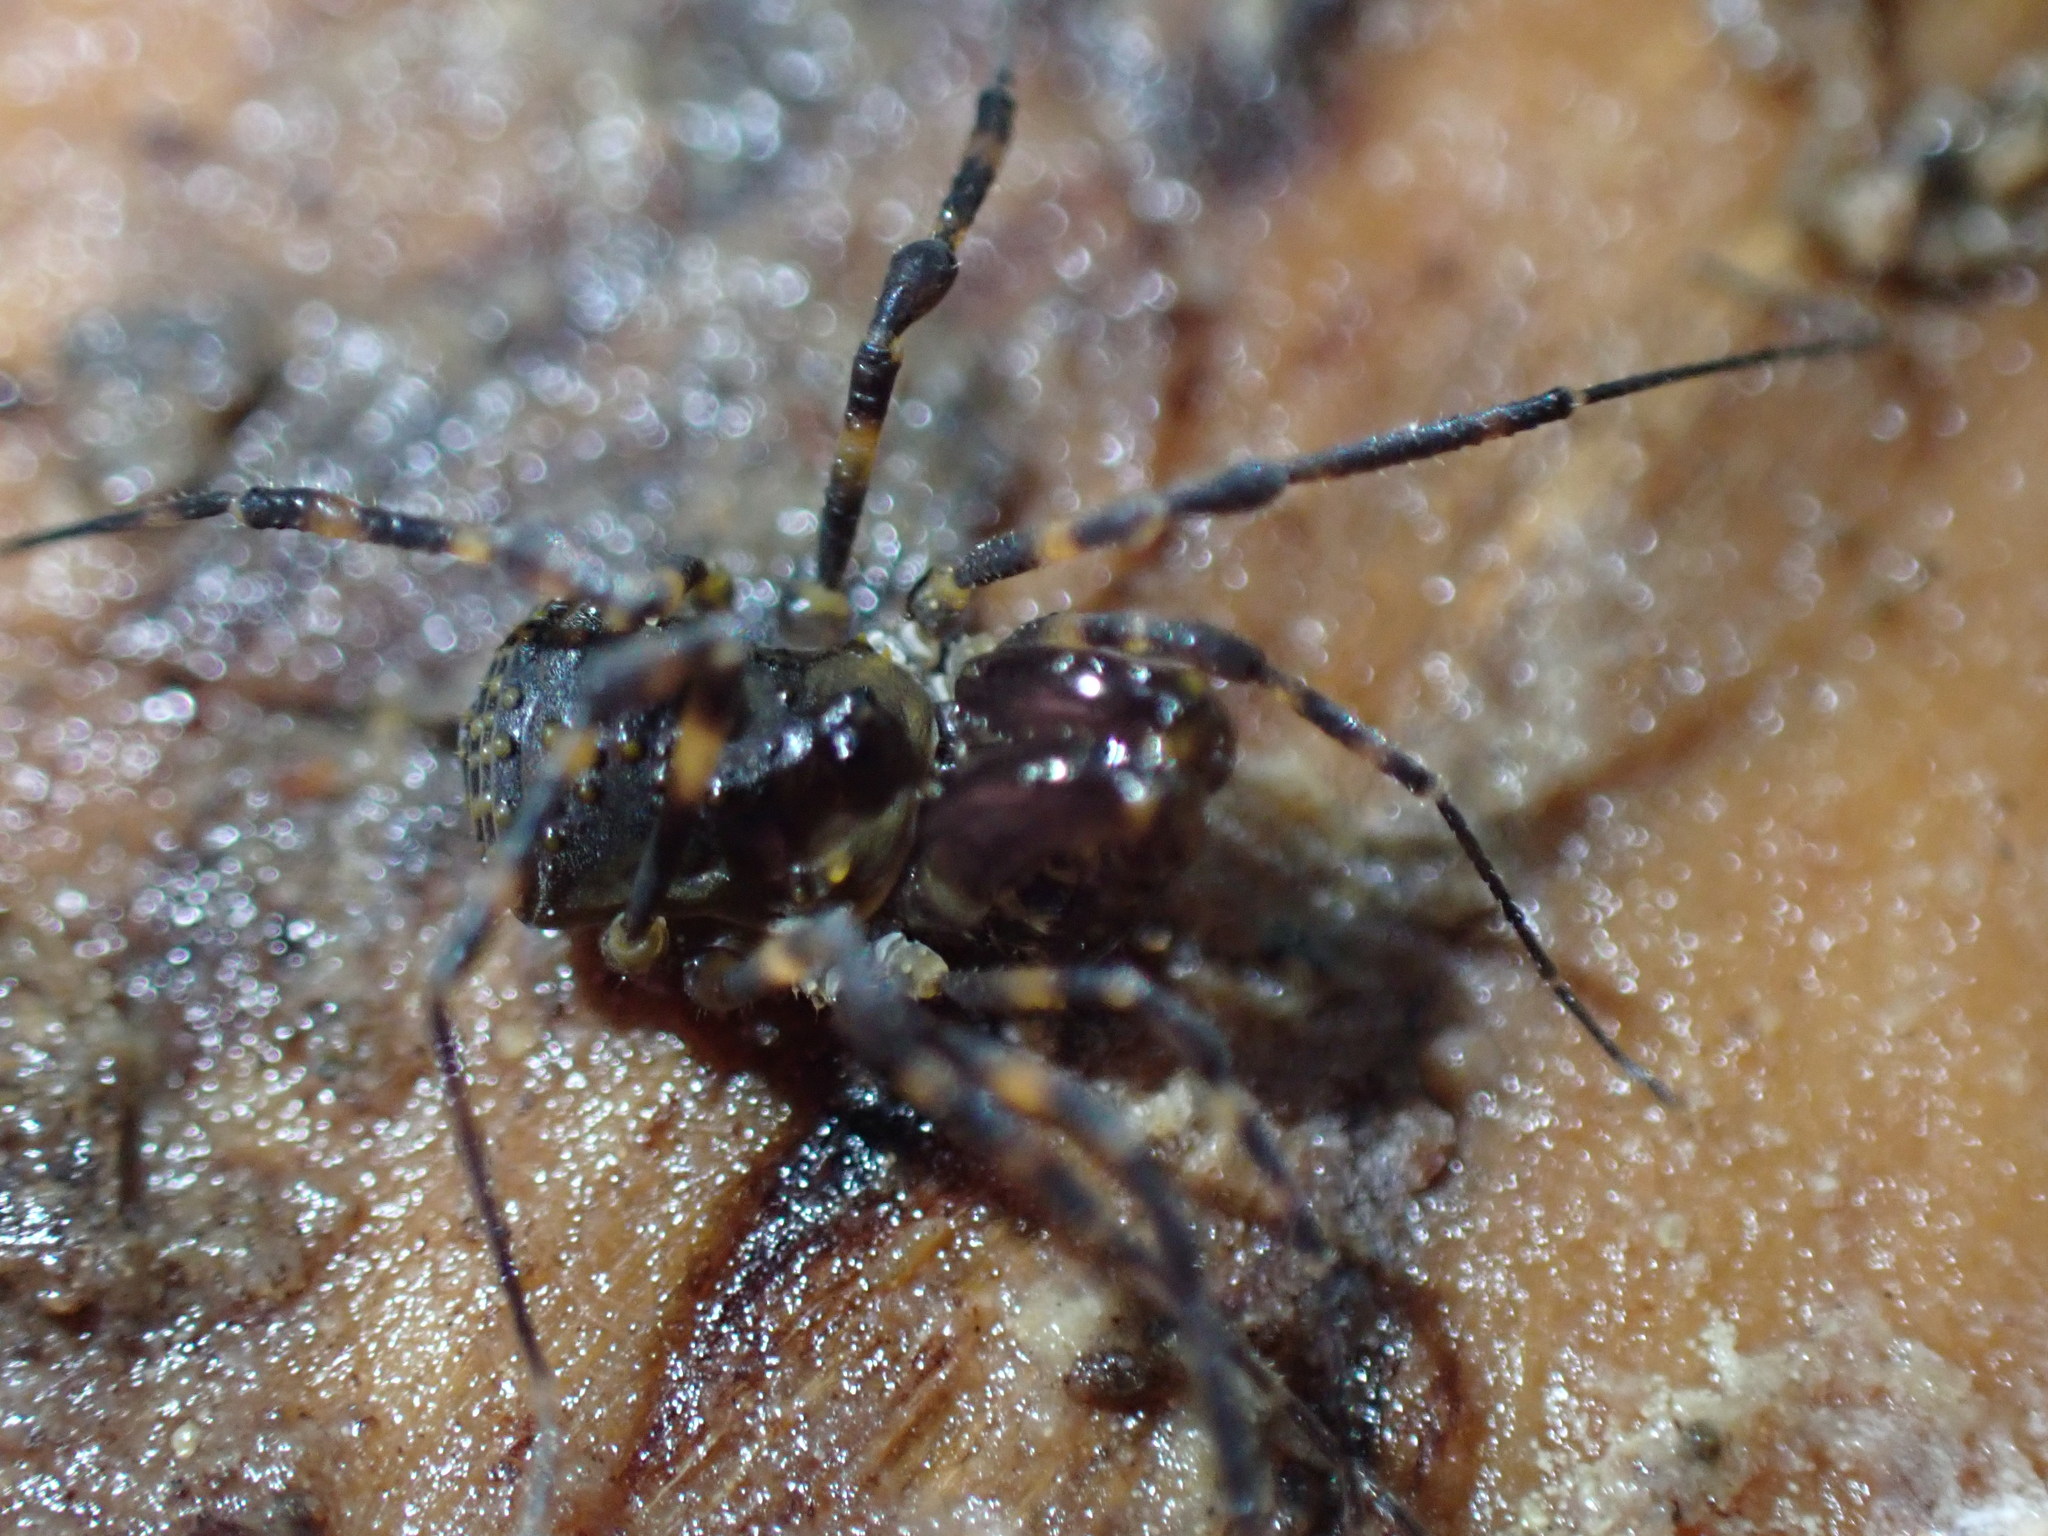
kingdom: Animalia
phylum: Arthropoda
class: Arachnida
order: Opiliones
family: Triaenonychidae
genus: Hendea
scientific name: Hendea myersi
